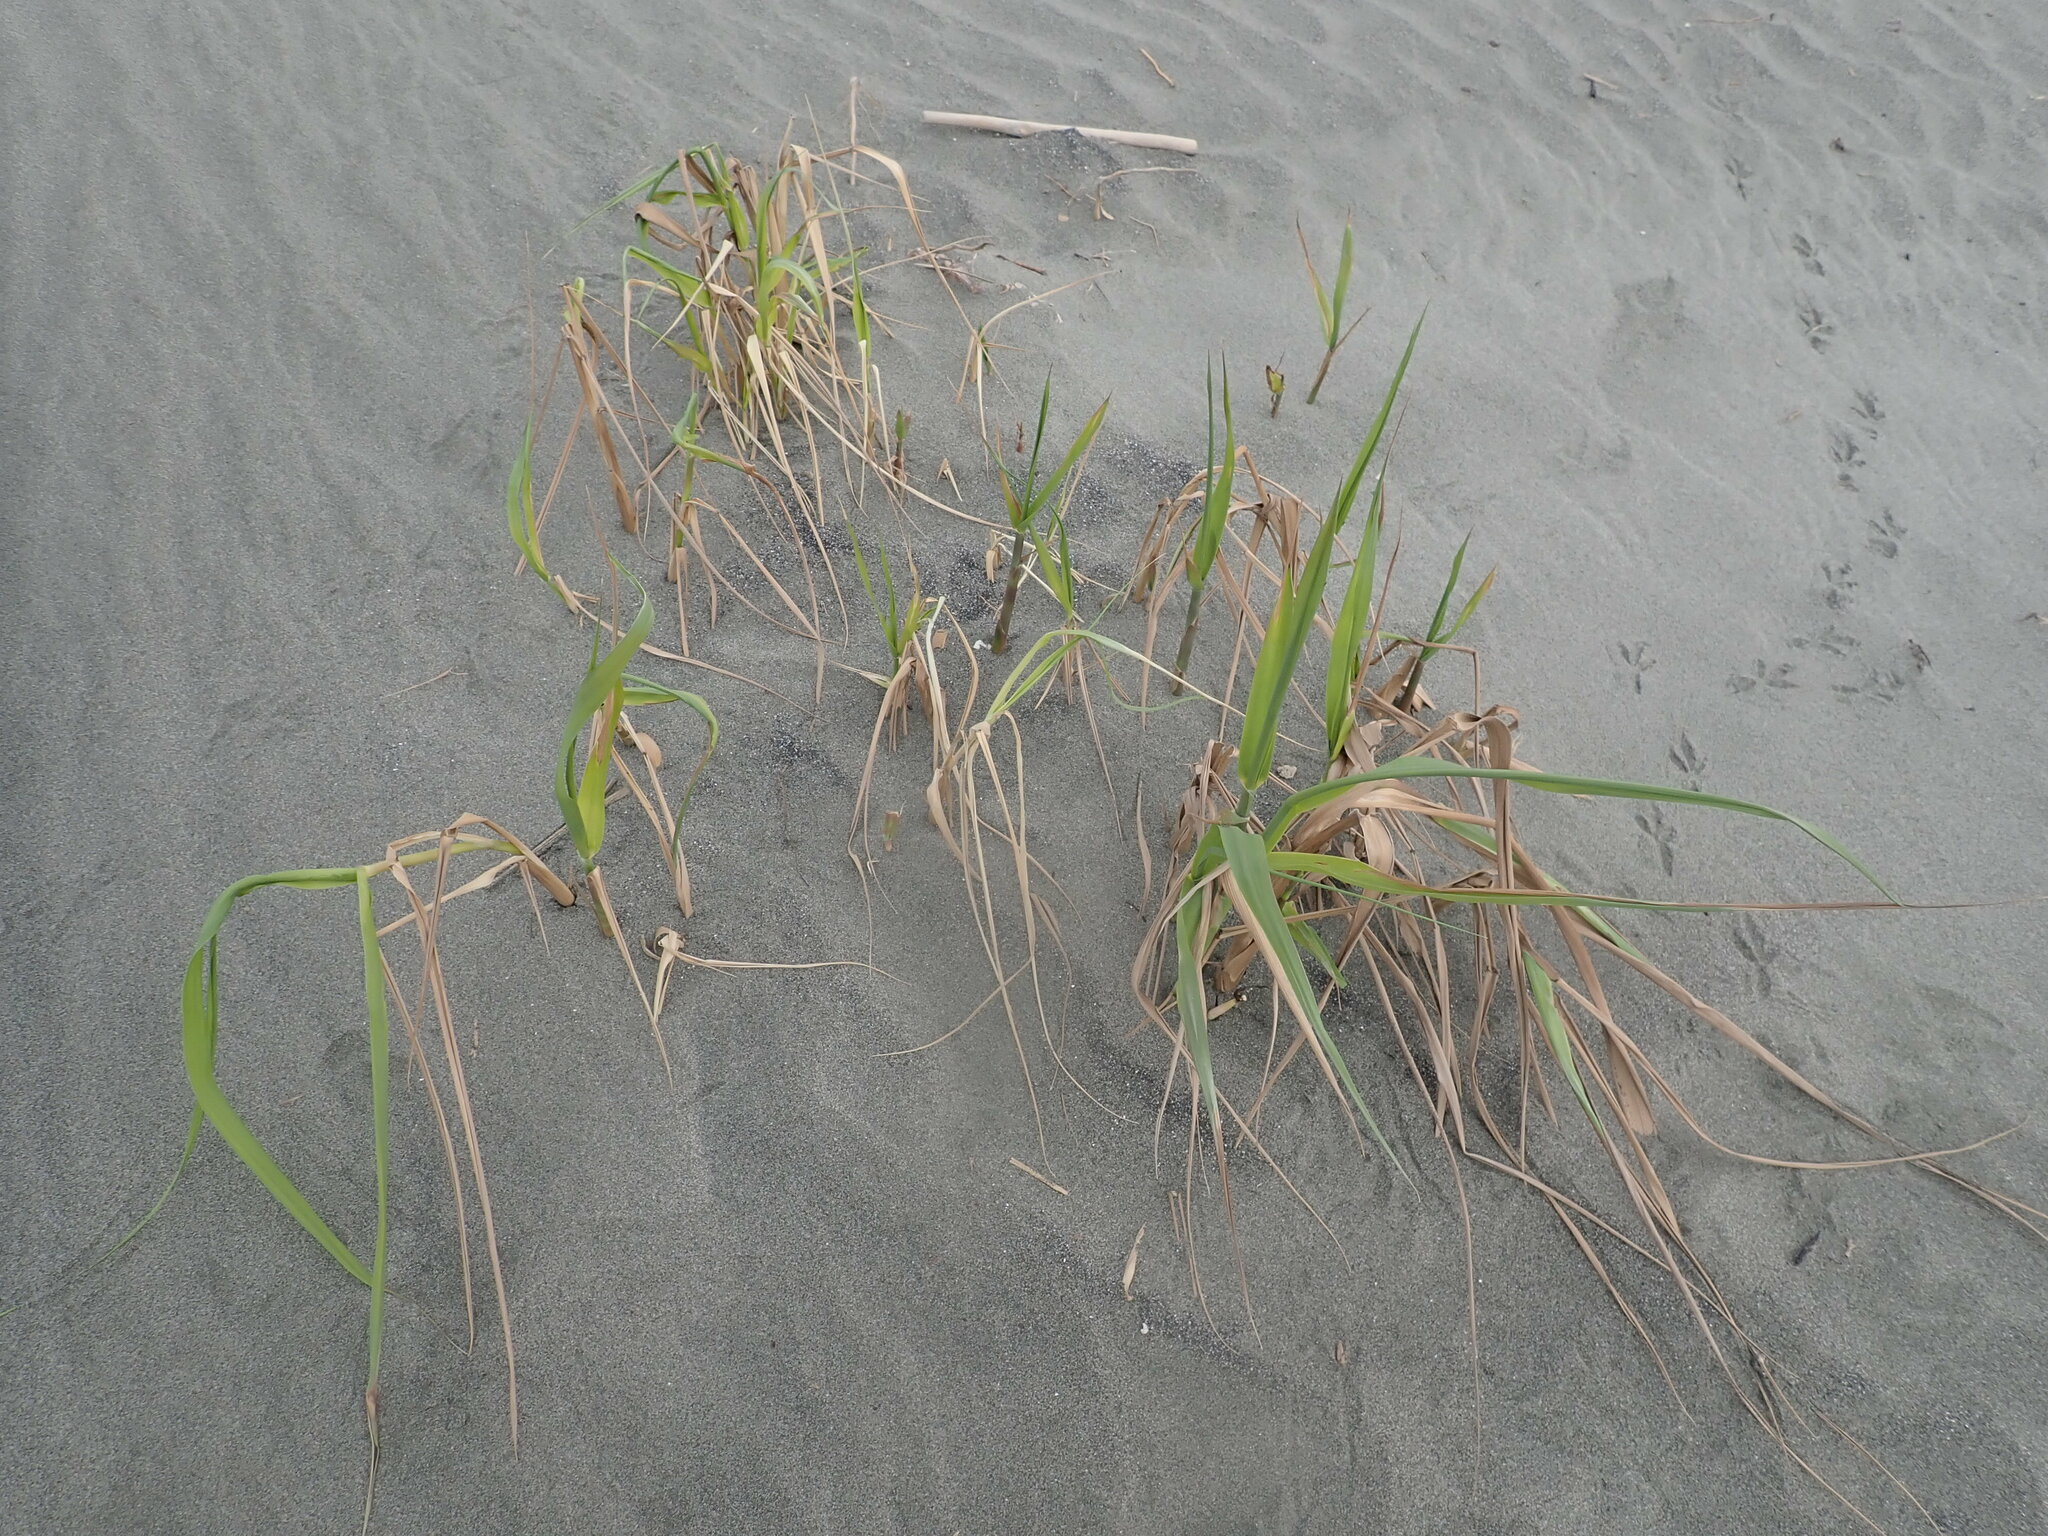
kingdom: Plantae
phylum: Tracheophyta
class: Liliopsida
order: Poales
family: Poaceae
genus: Phragmites
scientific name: Phragmites karka
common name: Tropical reed
